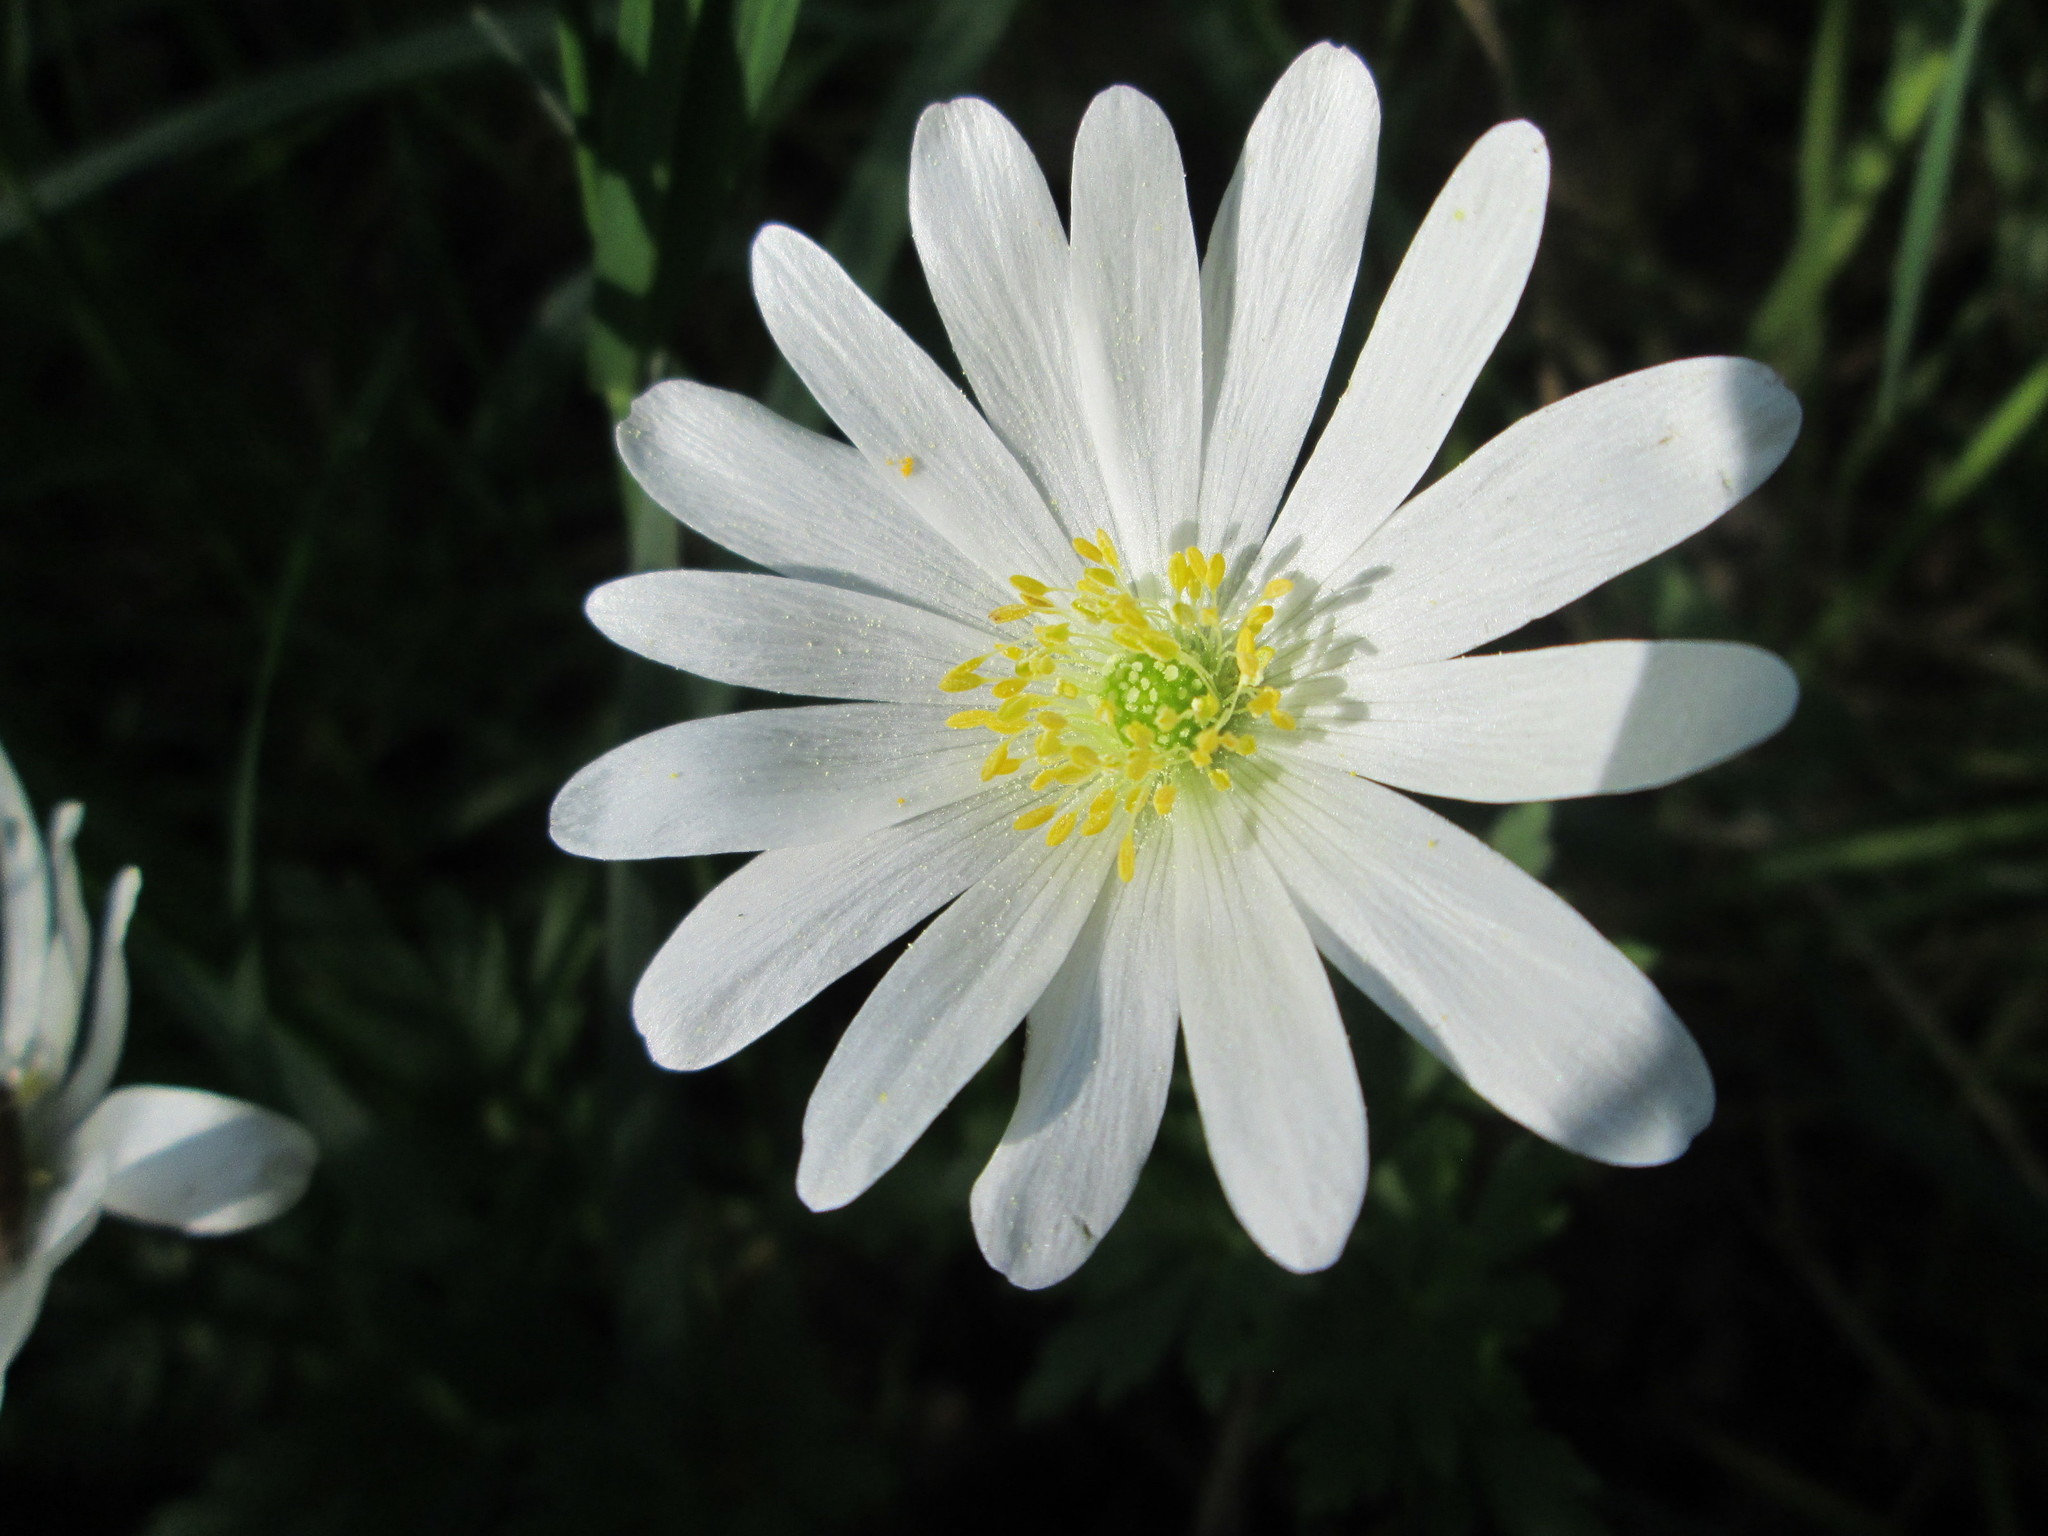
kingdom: Plantae
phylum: Tracheophyta
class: Magnoliopsida
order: Ranunculales
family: Ranunculaceae
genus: Anemone
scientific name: Anemone blanda
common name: Balkan anemone
